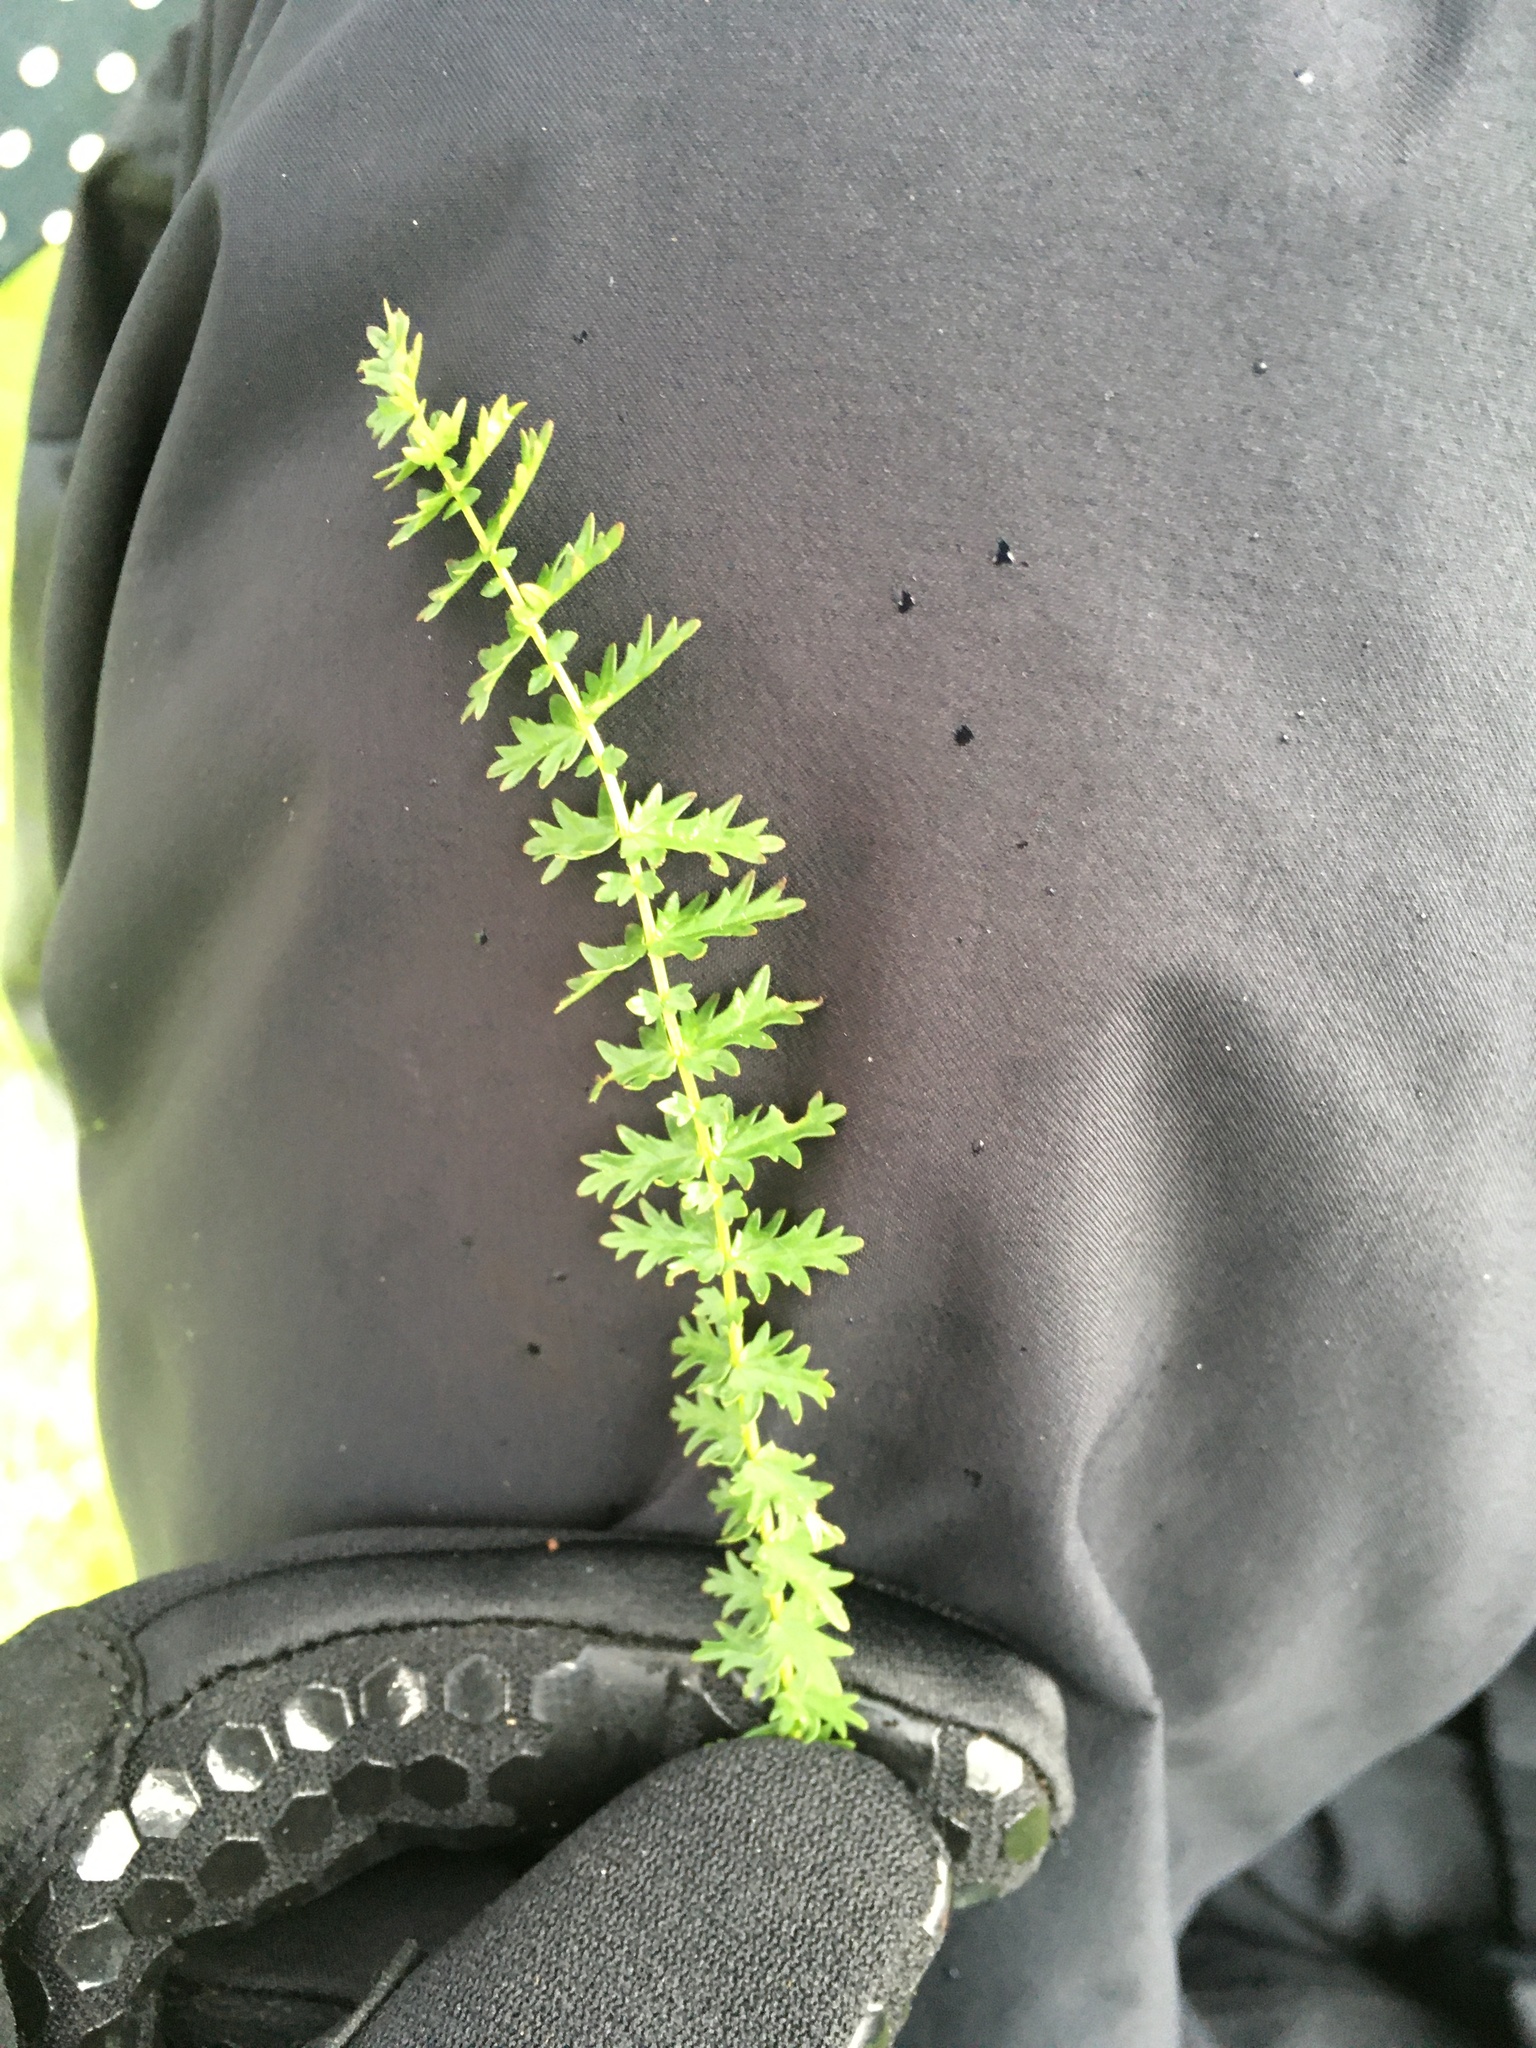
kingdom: Plantae
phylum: Tracheophyta
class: Magnoliopsida
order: Rosales
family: Rosaceae
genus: Filipendula
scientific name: Filipendula vulgaris
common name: Dropwort
